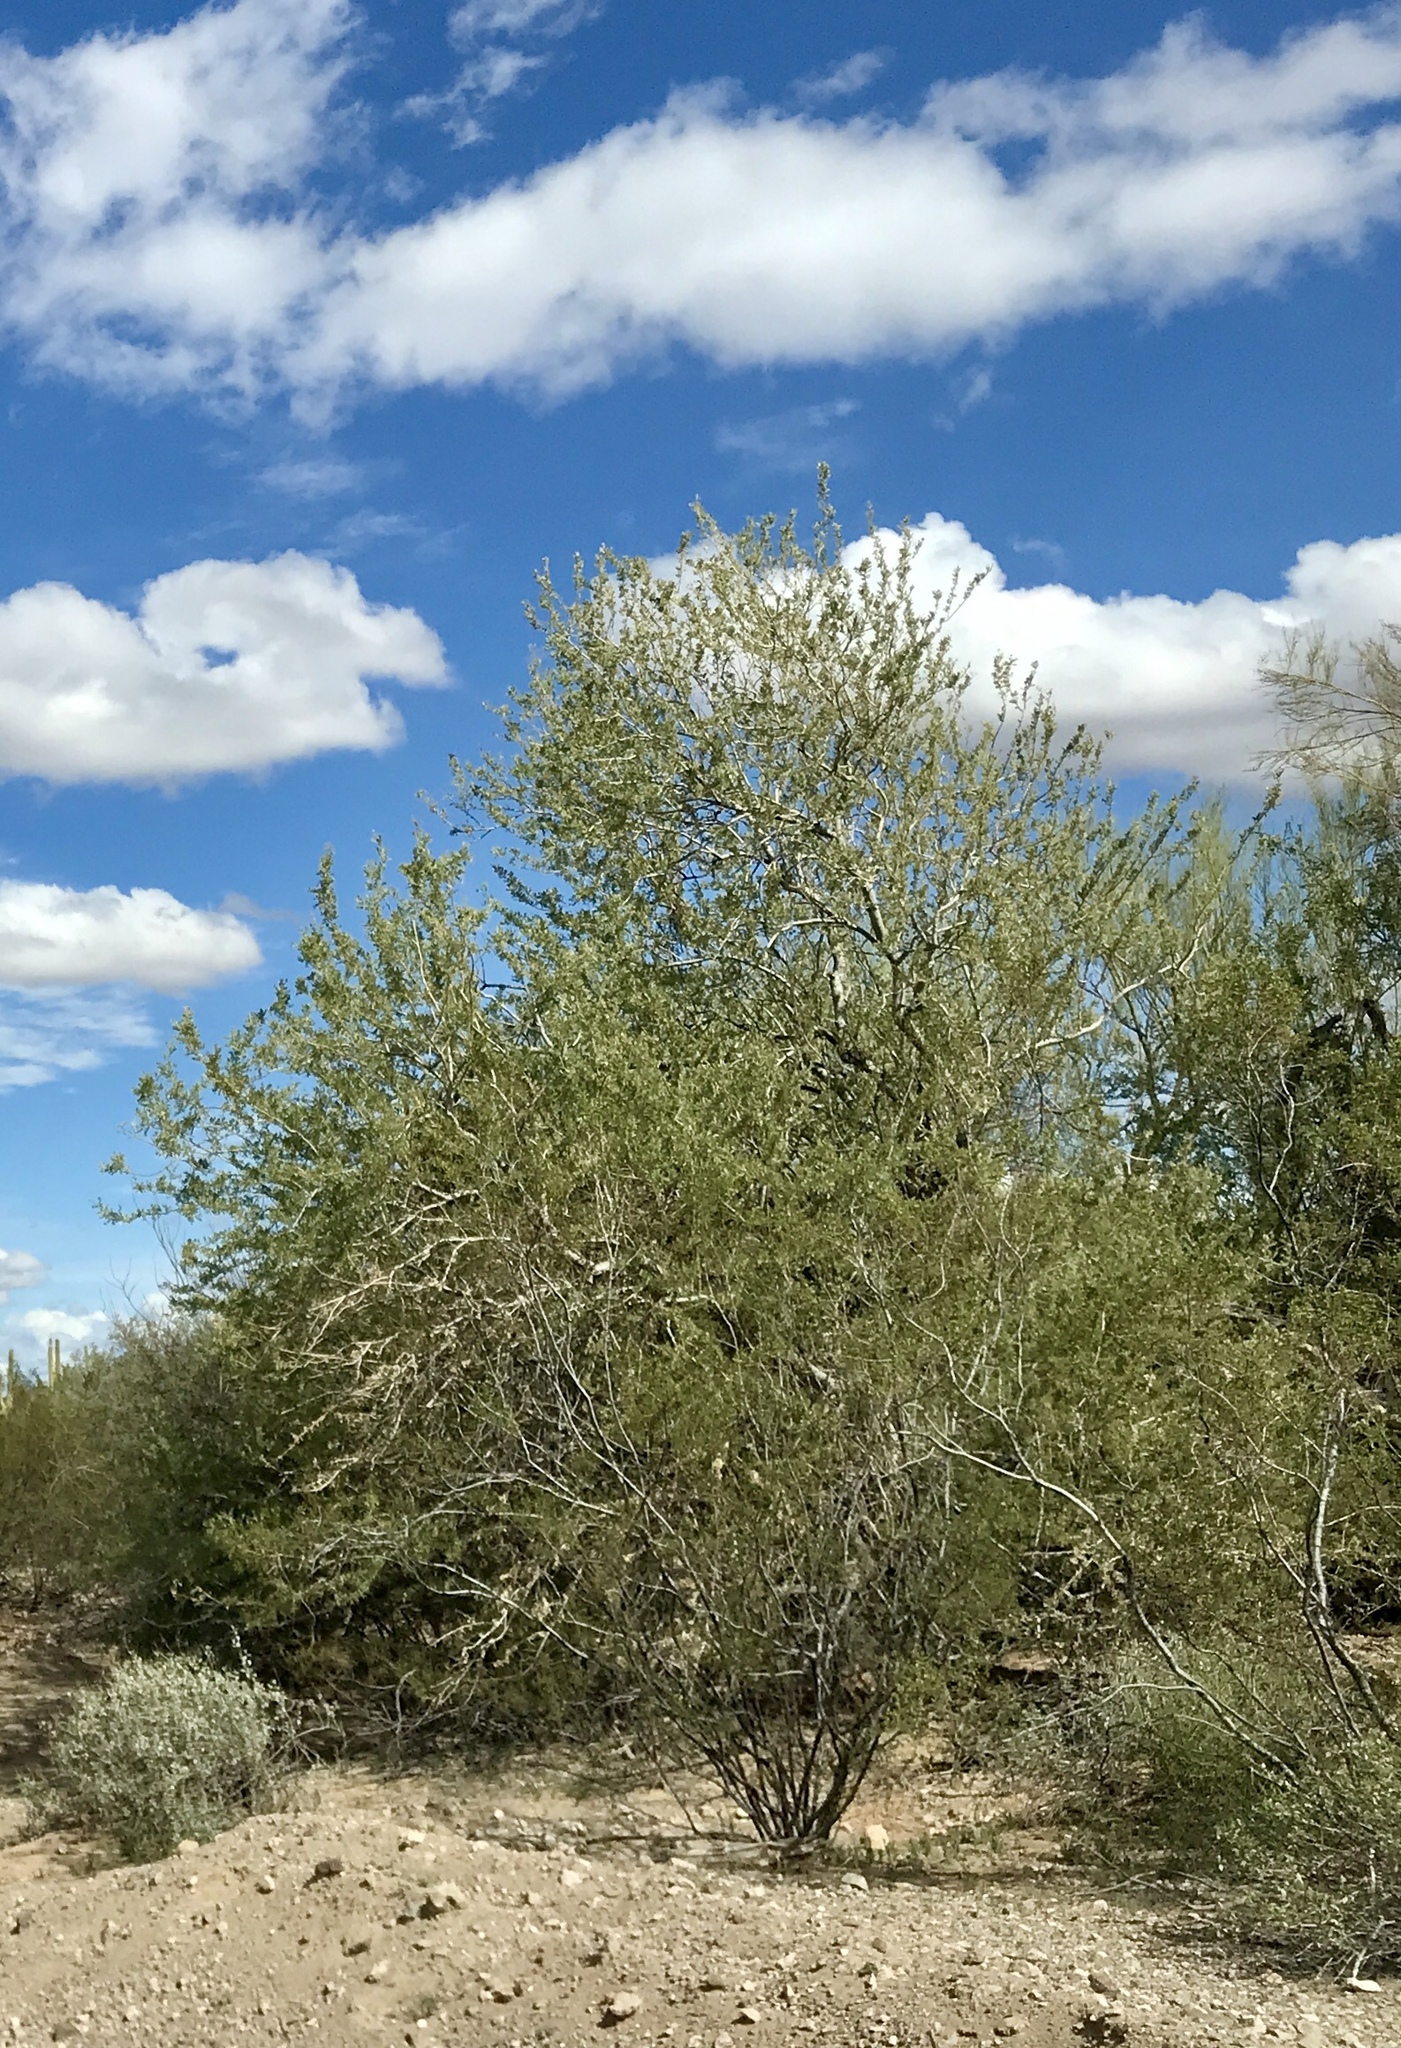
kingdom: Plantae
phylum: Tracheophyta
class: Magnoliopsida
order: Fabales
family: Fabaceae
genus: Olneya
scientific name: Olneya tesota
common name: Desert ironwood
